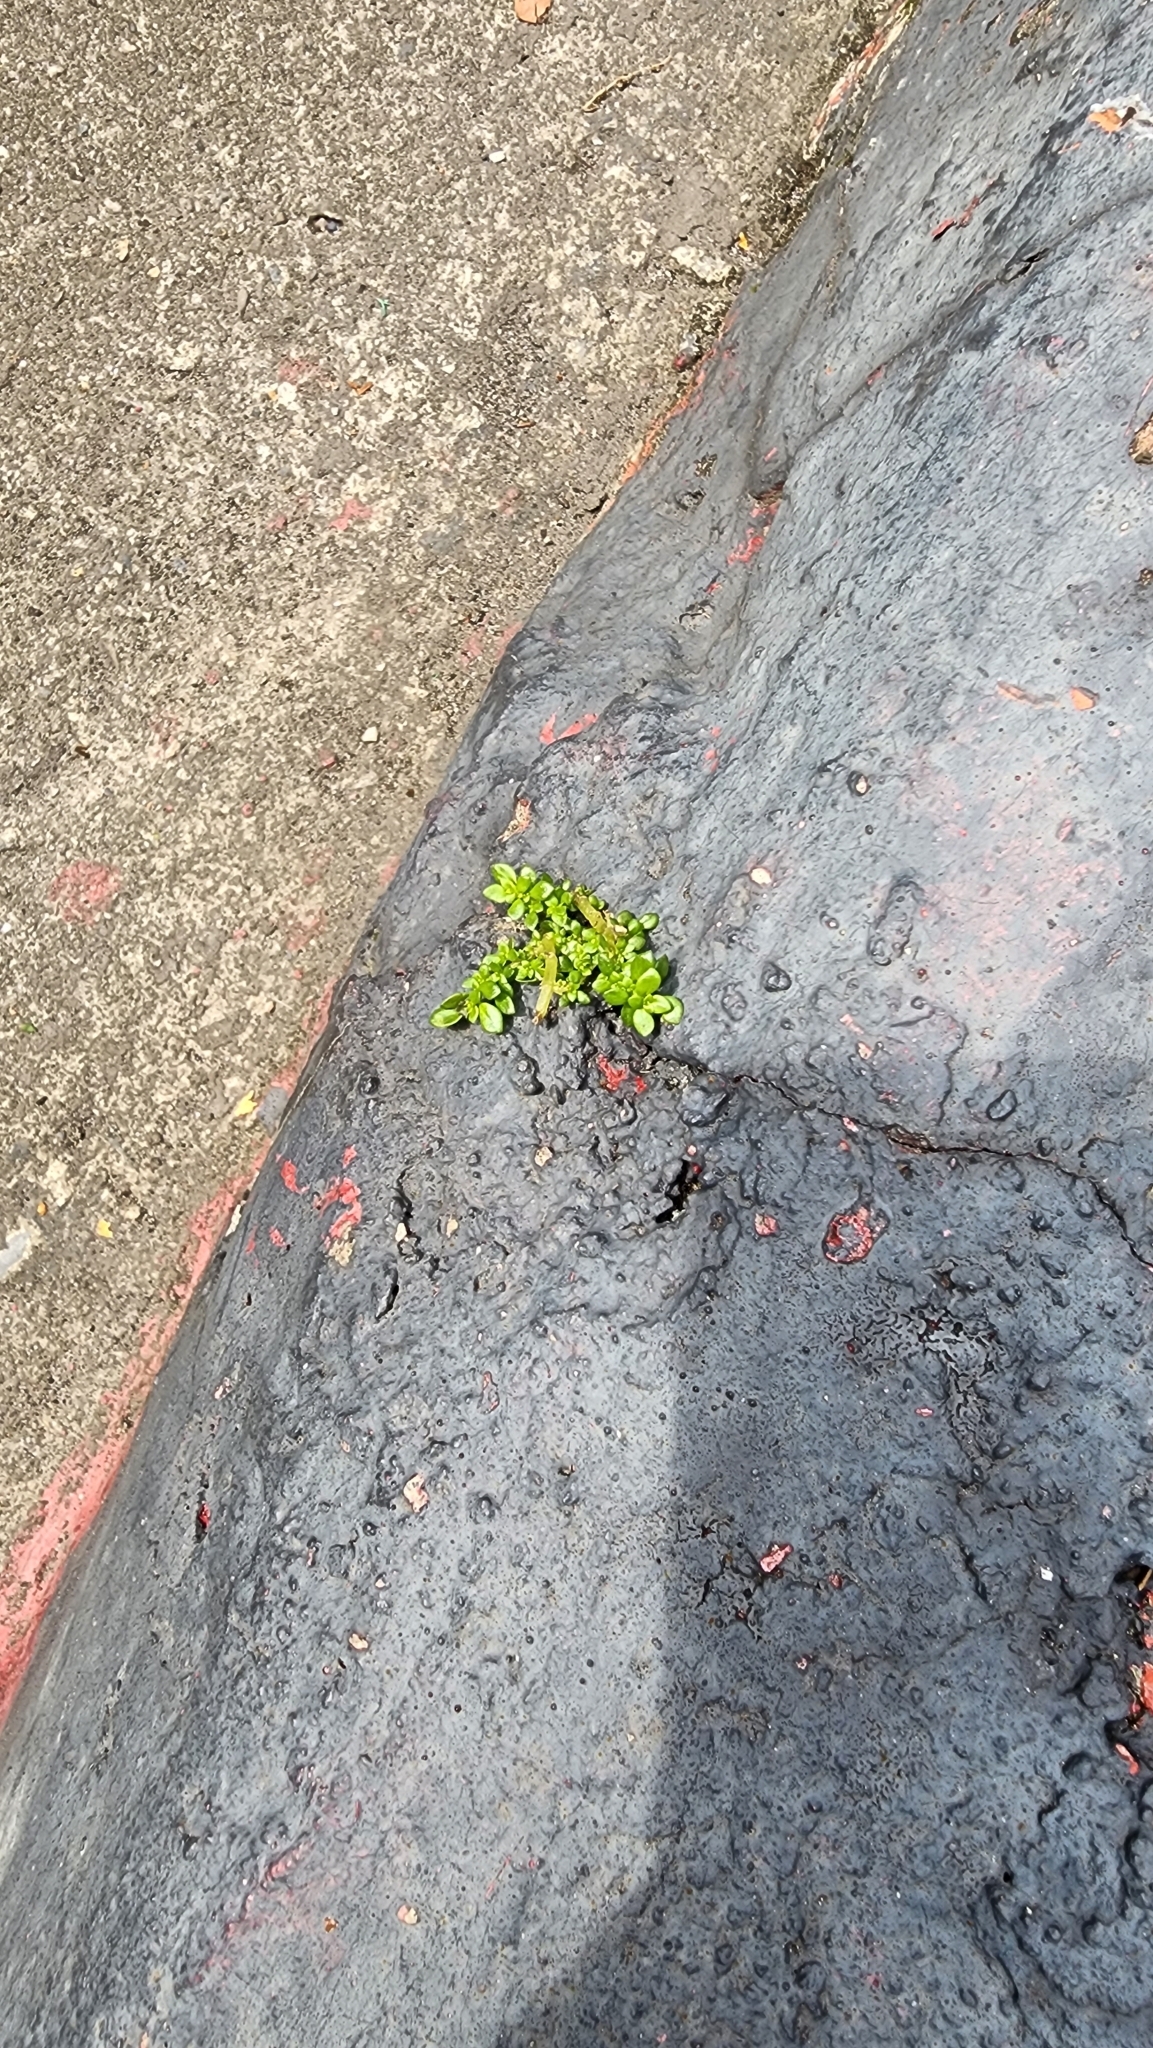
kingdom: Plantae
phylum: Tracheophyta
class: Magnoliopsida
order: Rosales
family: Urticaceae
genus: Pilea
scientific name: Pilea microphylla
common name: Artillery-plant
